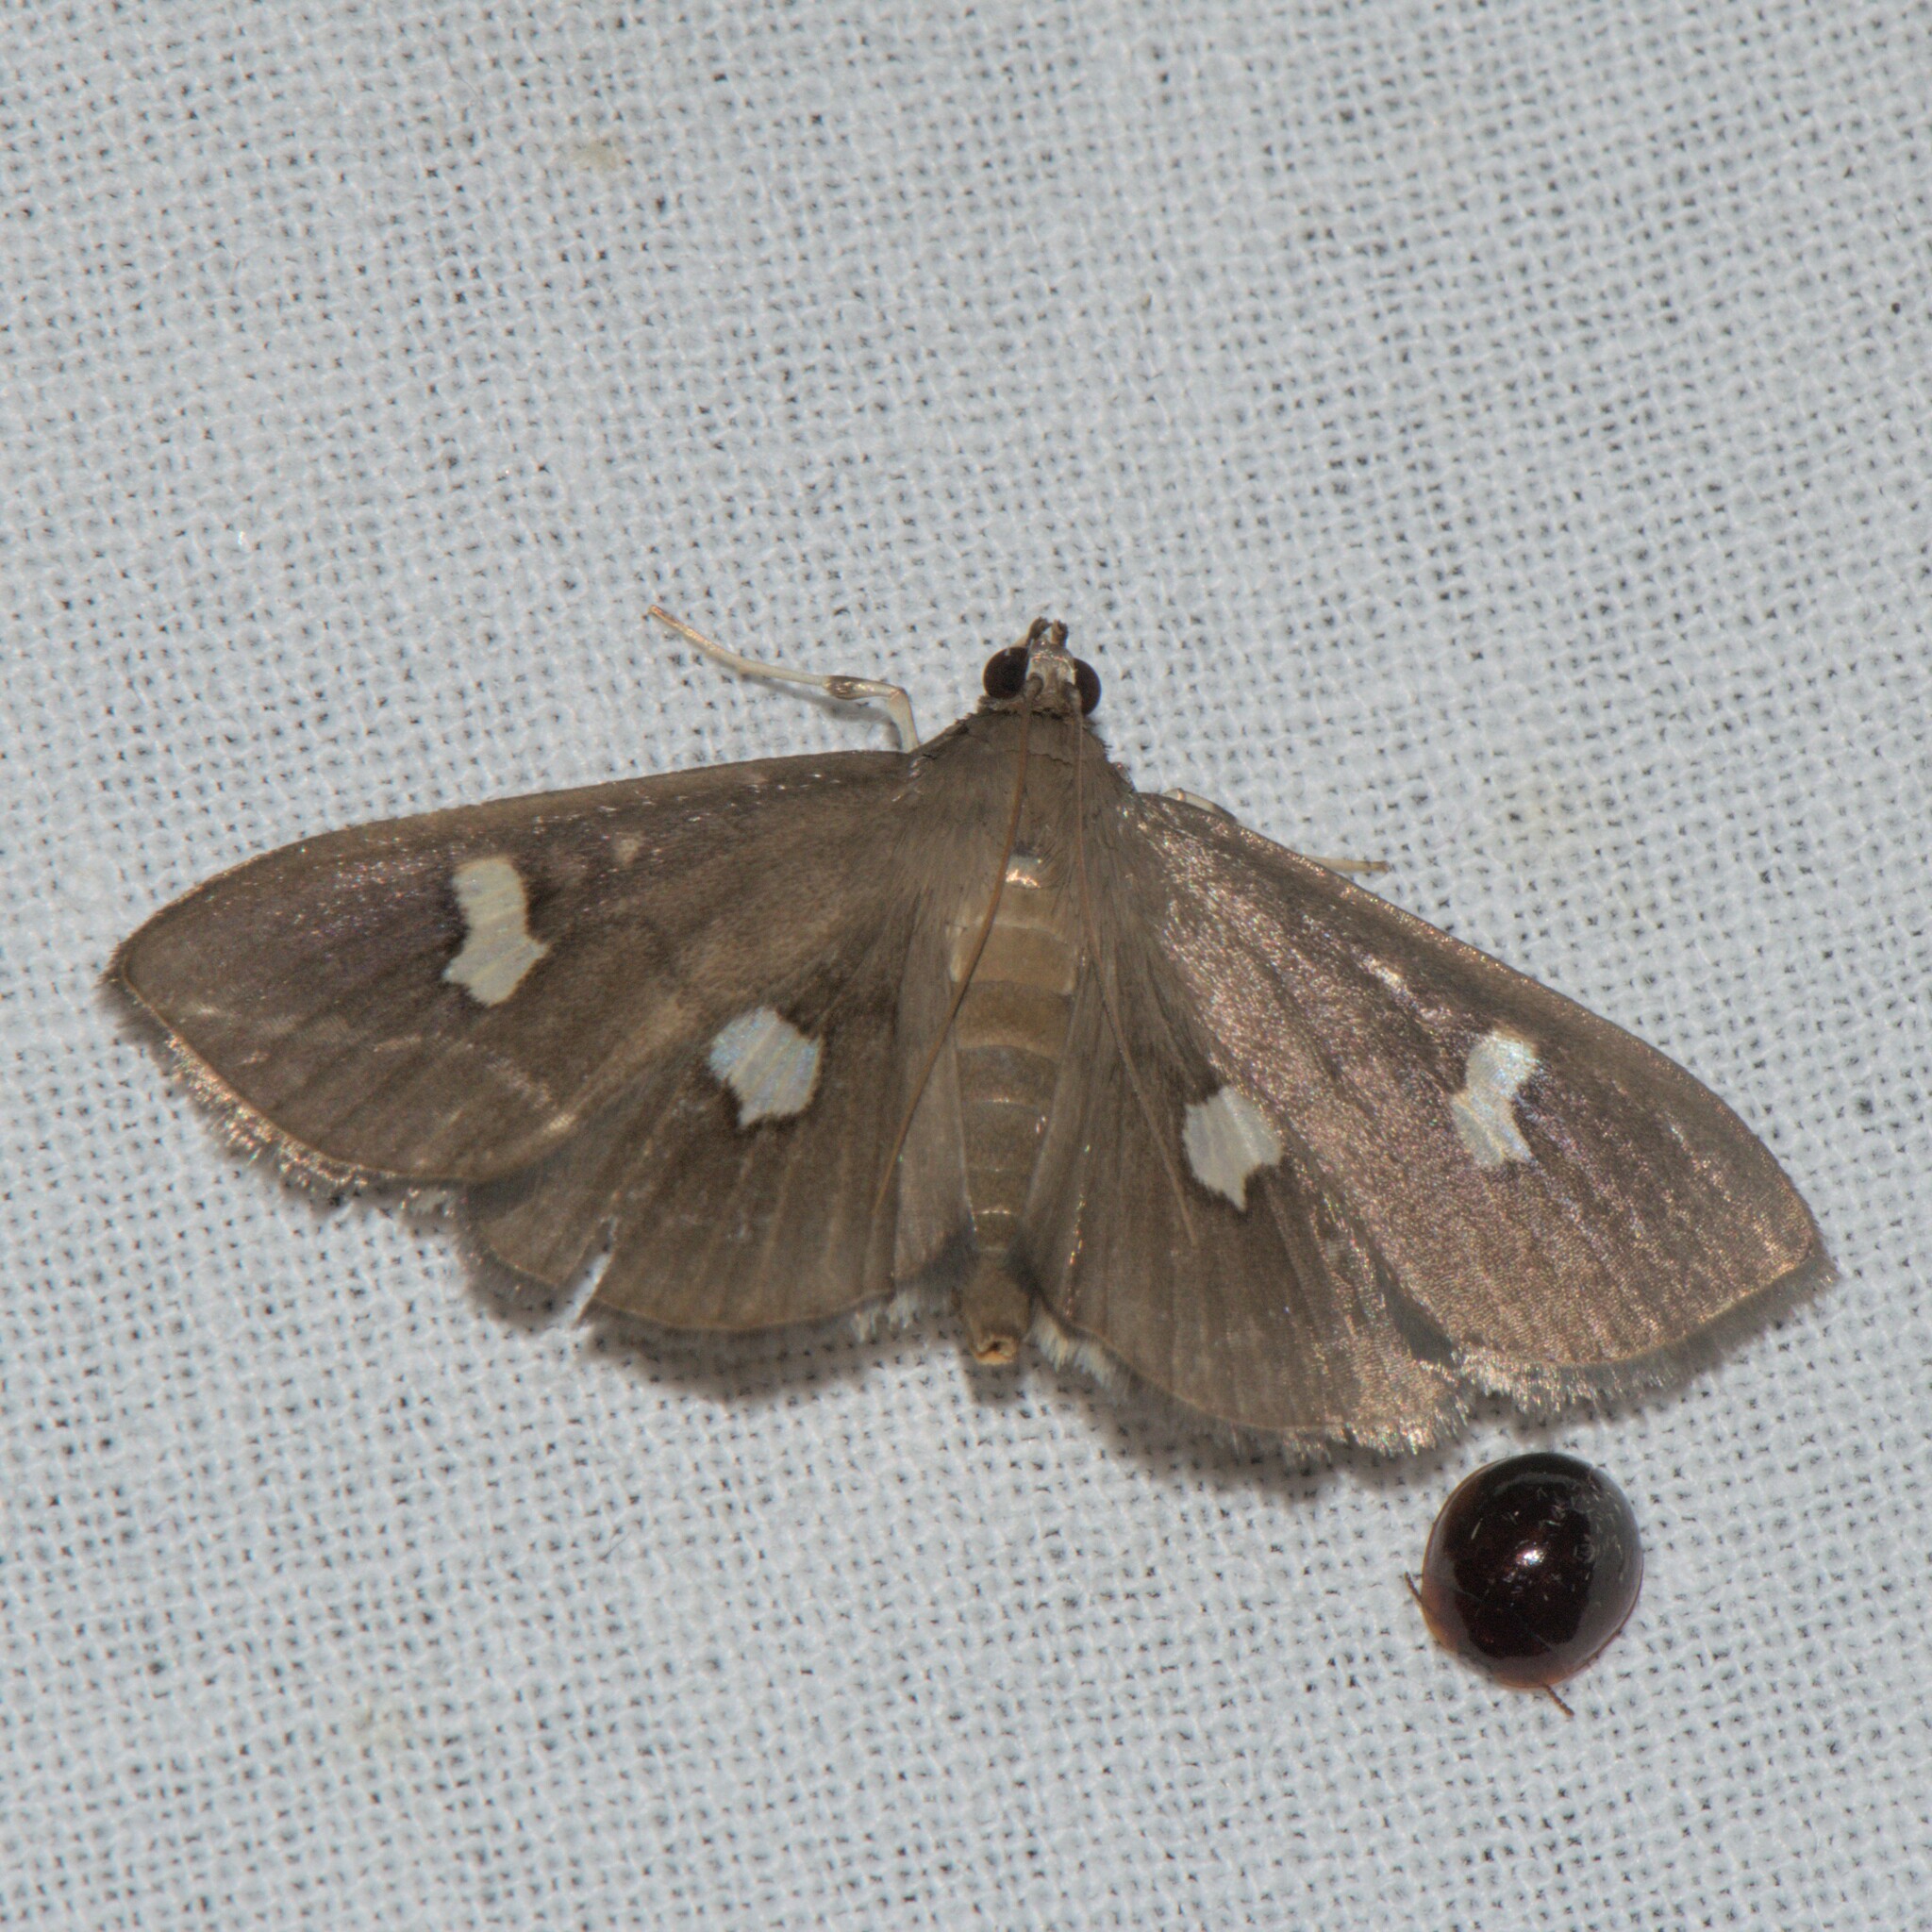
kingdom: Animalia
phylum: Arthropoda
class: Insecta
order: Lepidoptera
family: Crambidae
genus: Nagiella
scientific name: Nagiella quadrimaculalis
